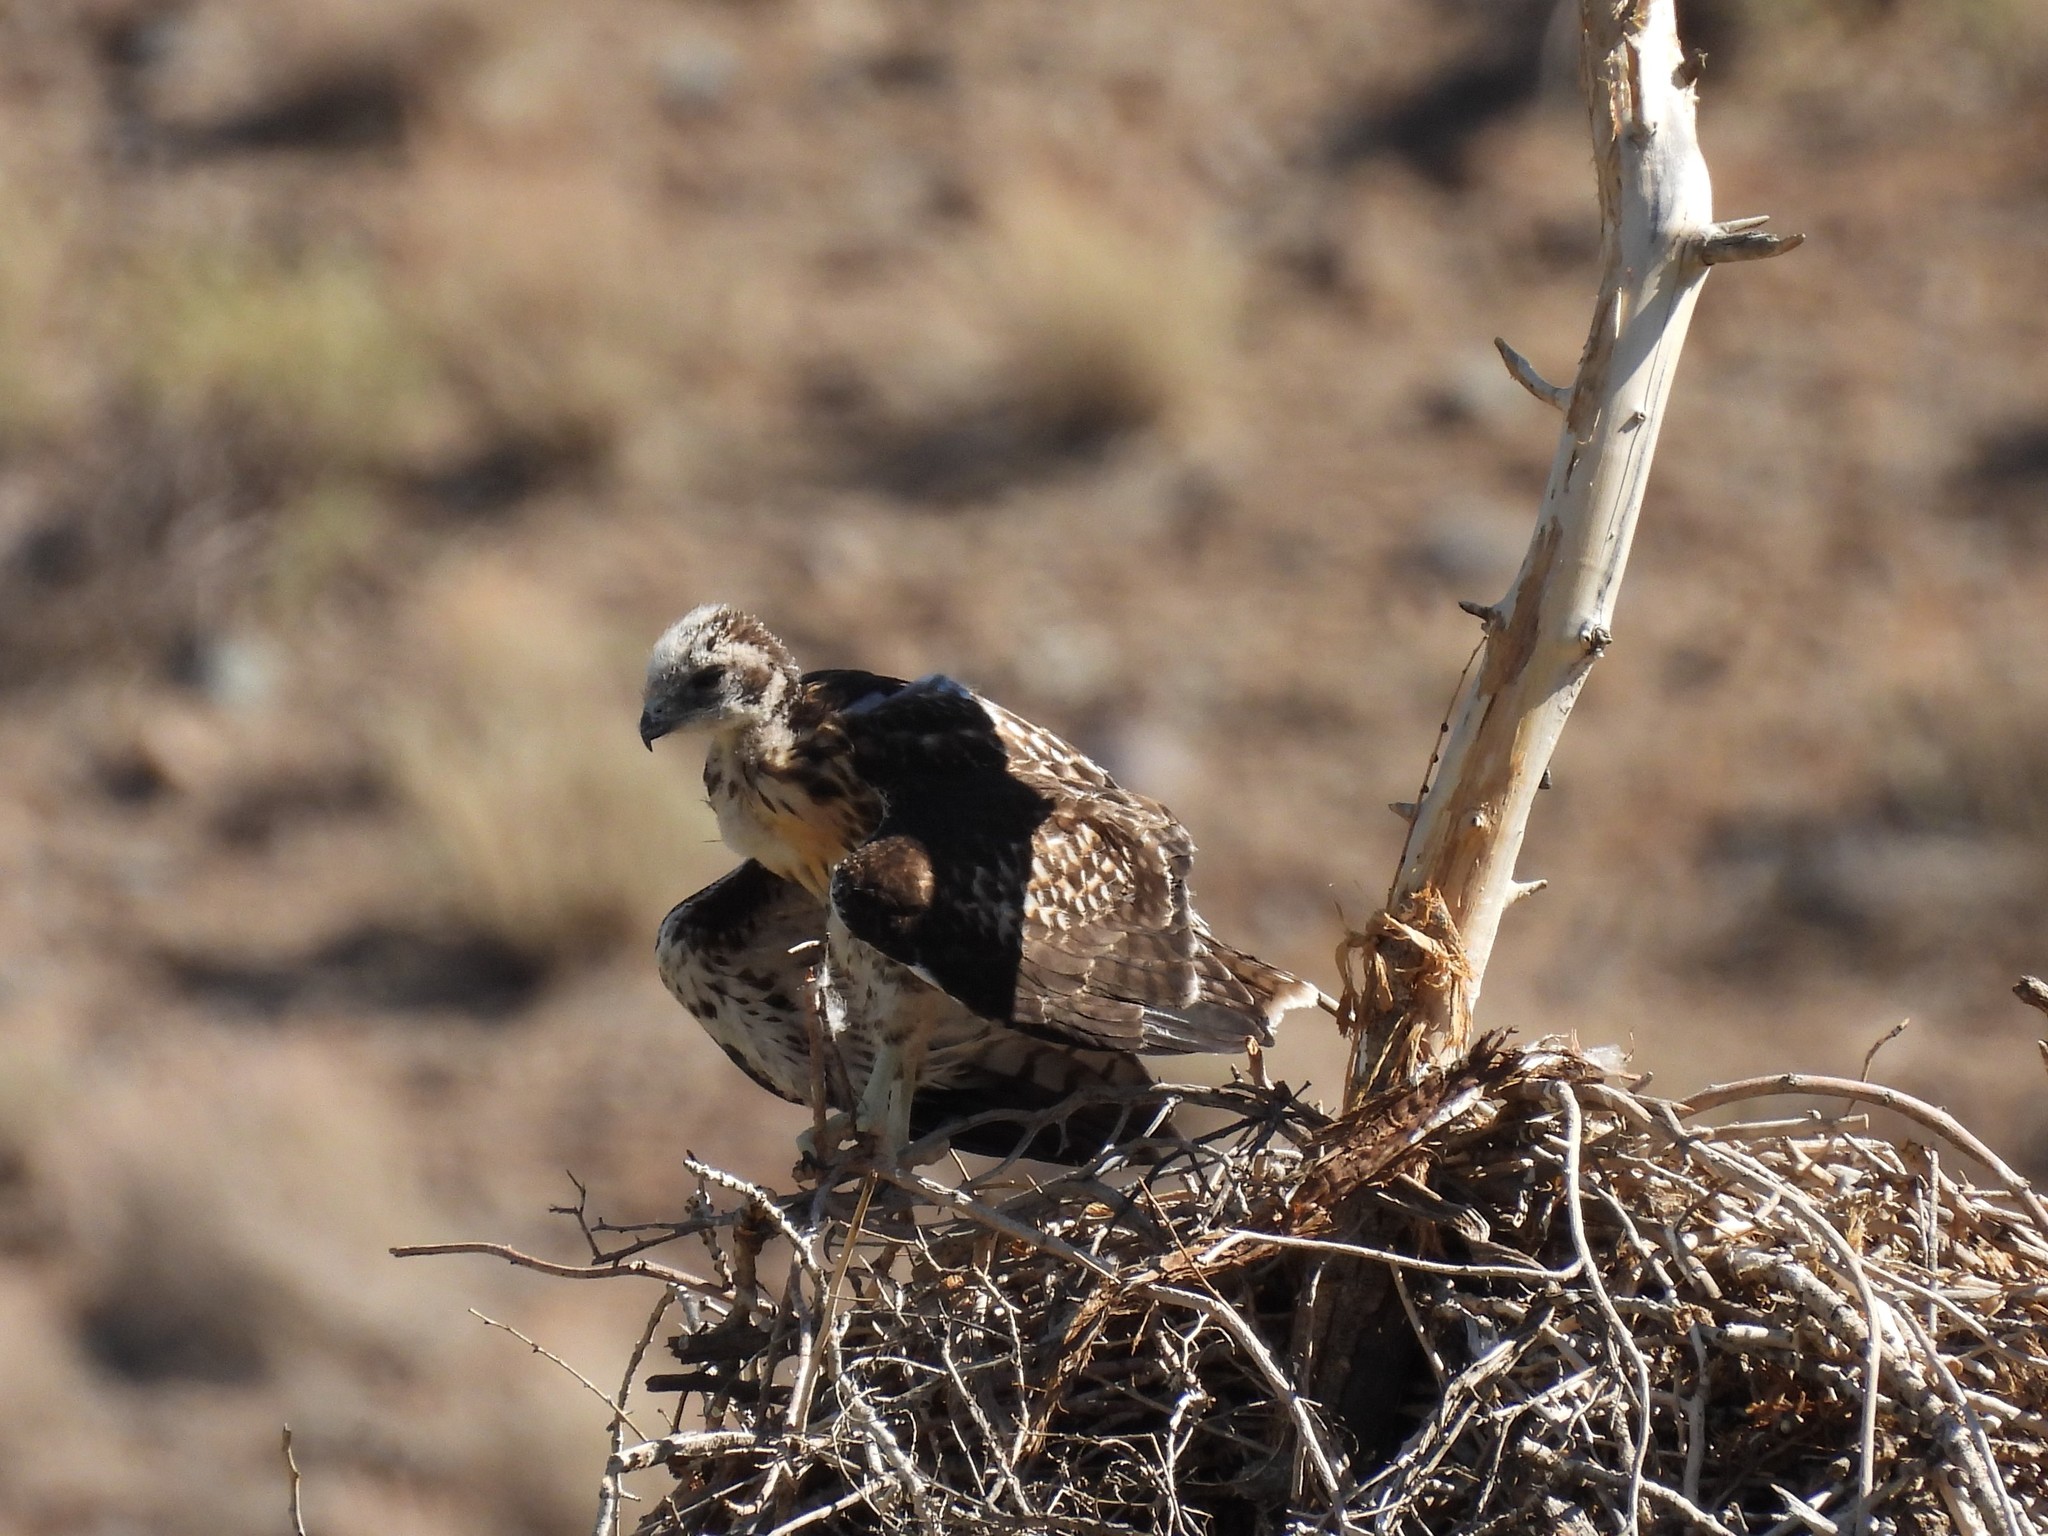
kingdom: Animalia
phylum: Chordata
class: Aves
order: Accipitriformes
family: Pandionidae
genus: Pandion
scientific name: Pandion haliaetus
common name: Osprey
